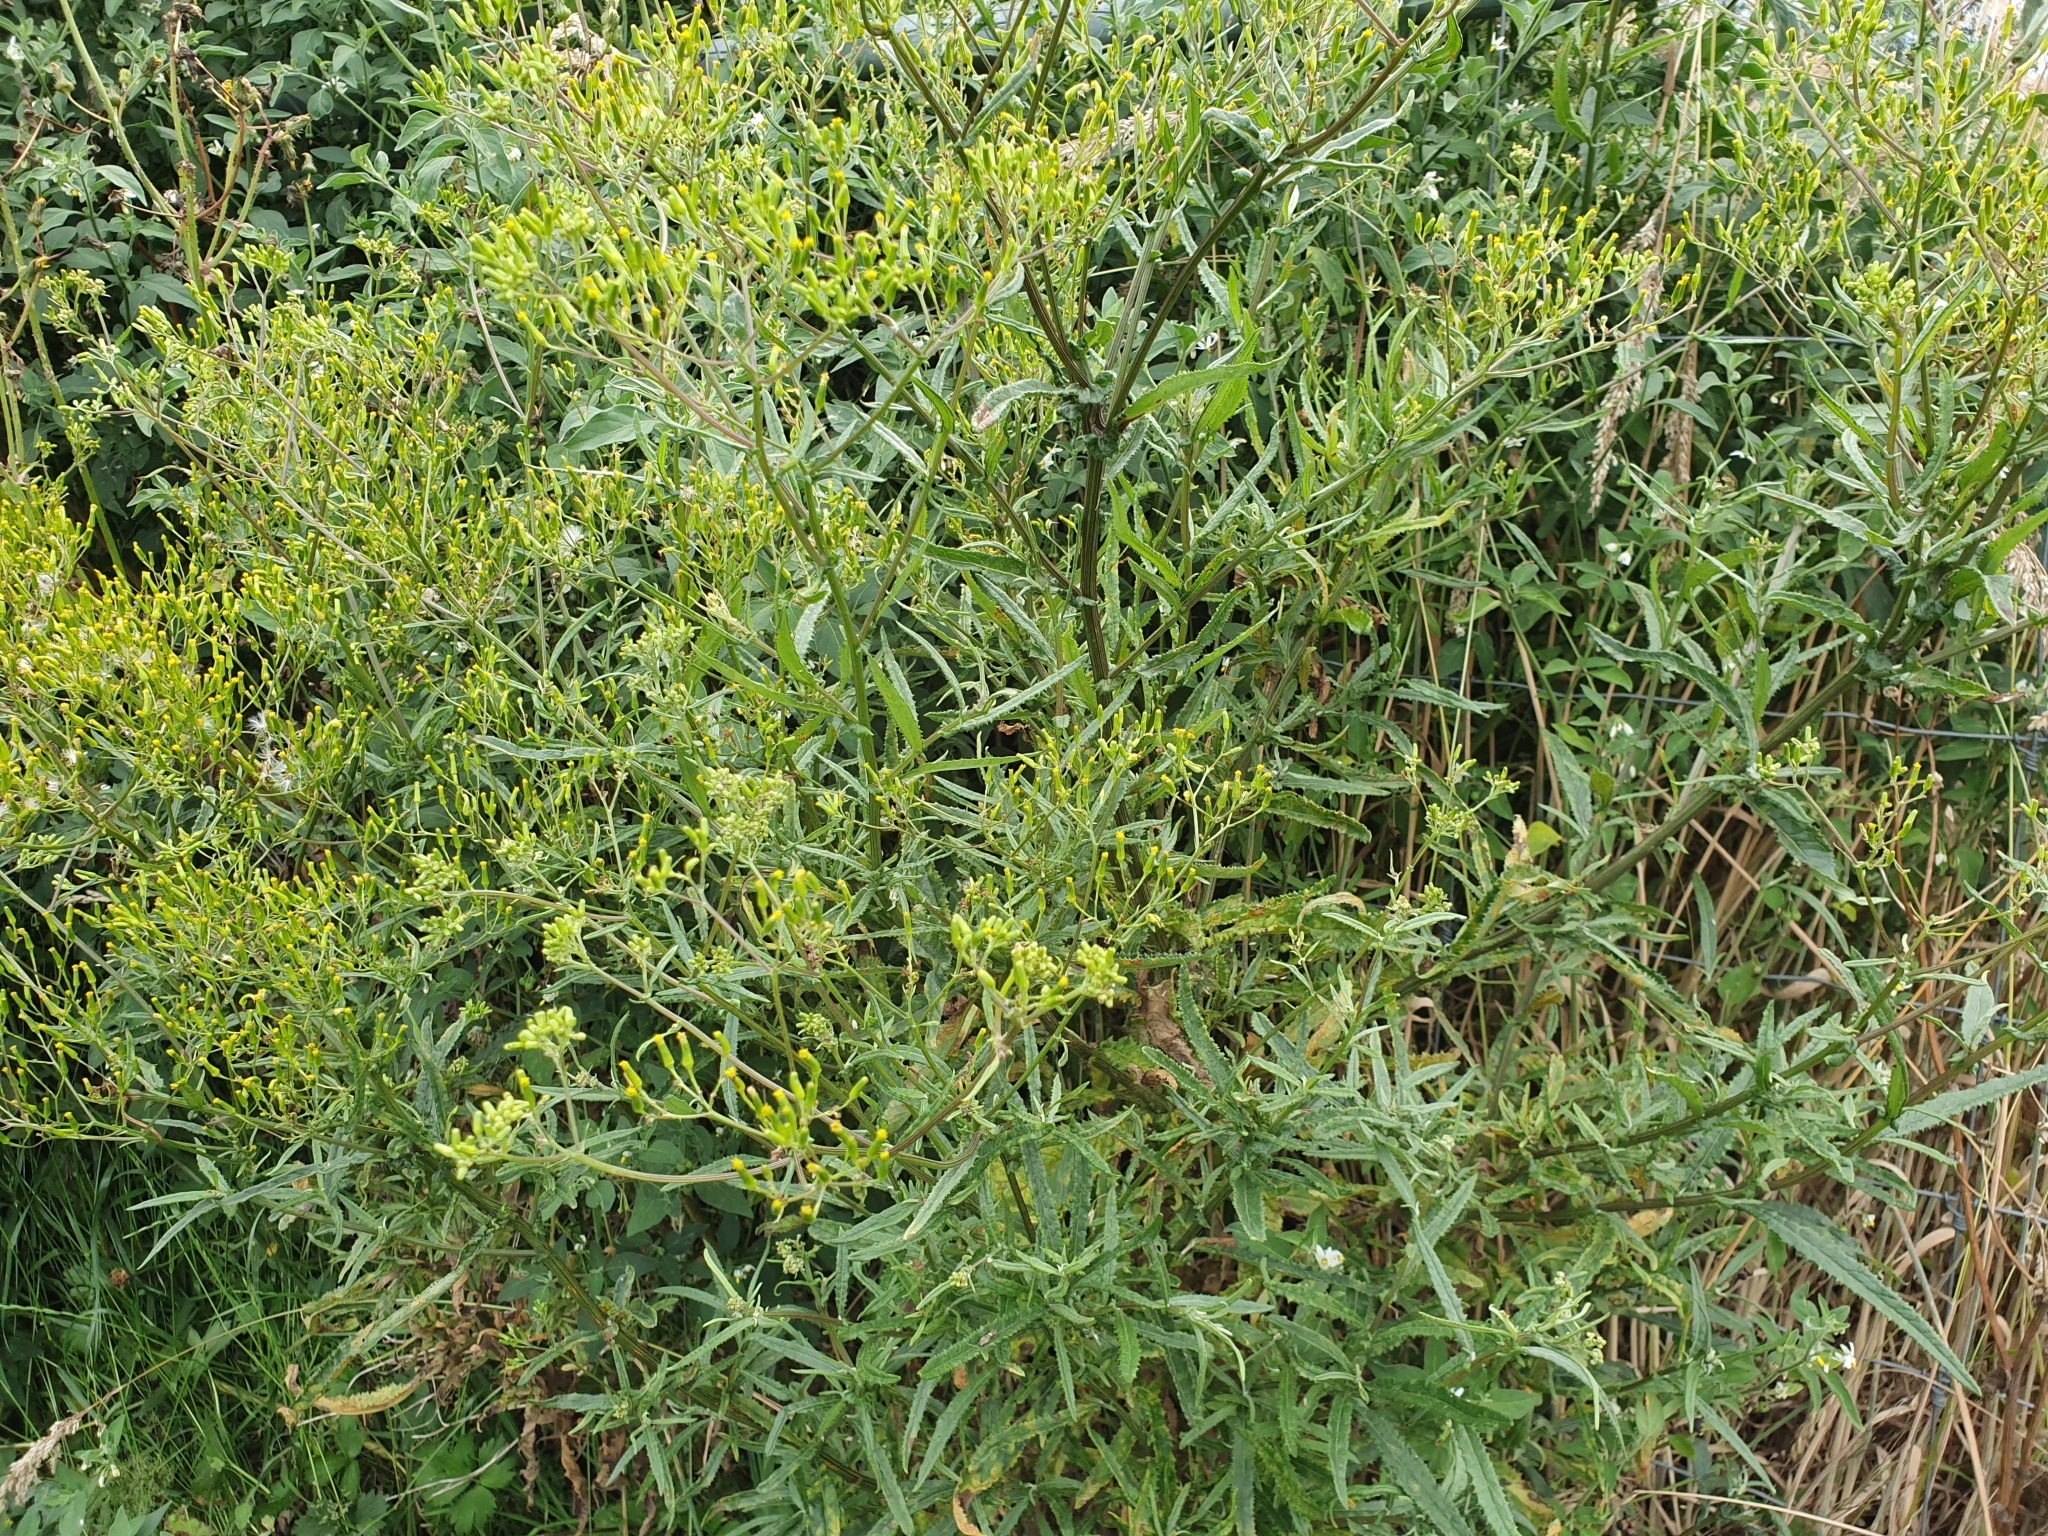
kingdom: Plantae
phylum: Tracheophyta
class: Magnoliopsida
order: Asterales
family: Asteraceae
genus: Senecio
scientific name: Senecio minimus
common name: Toothed fireweed
